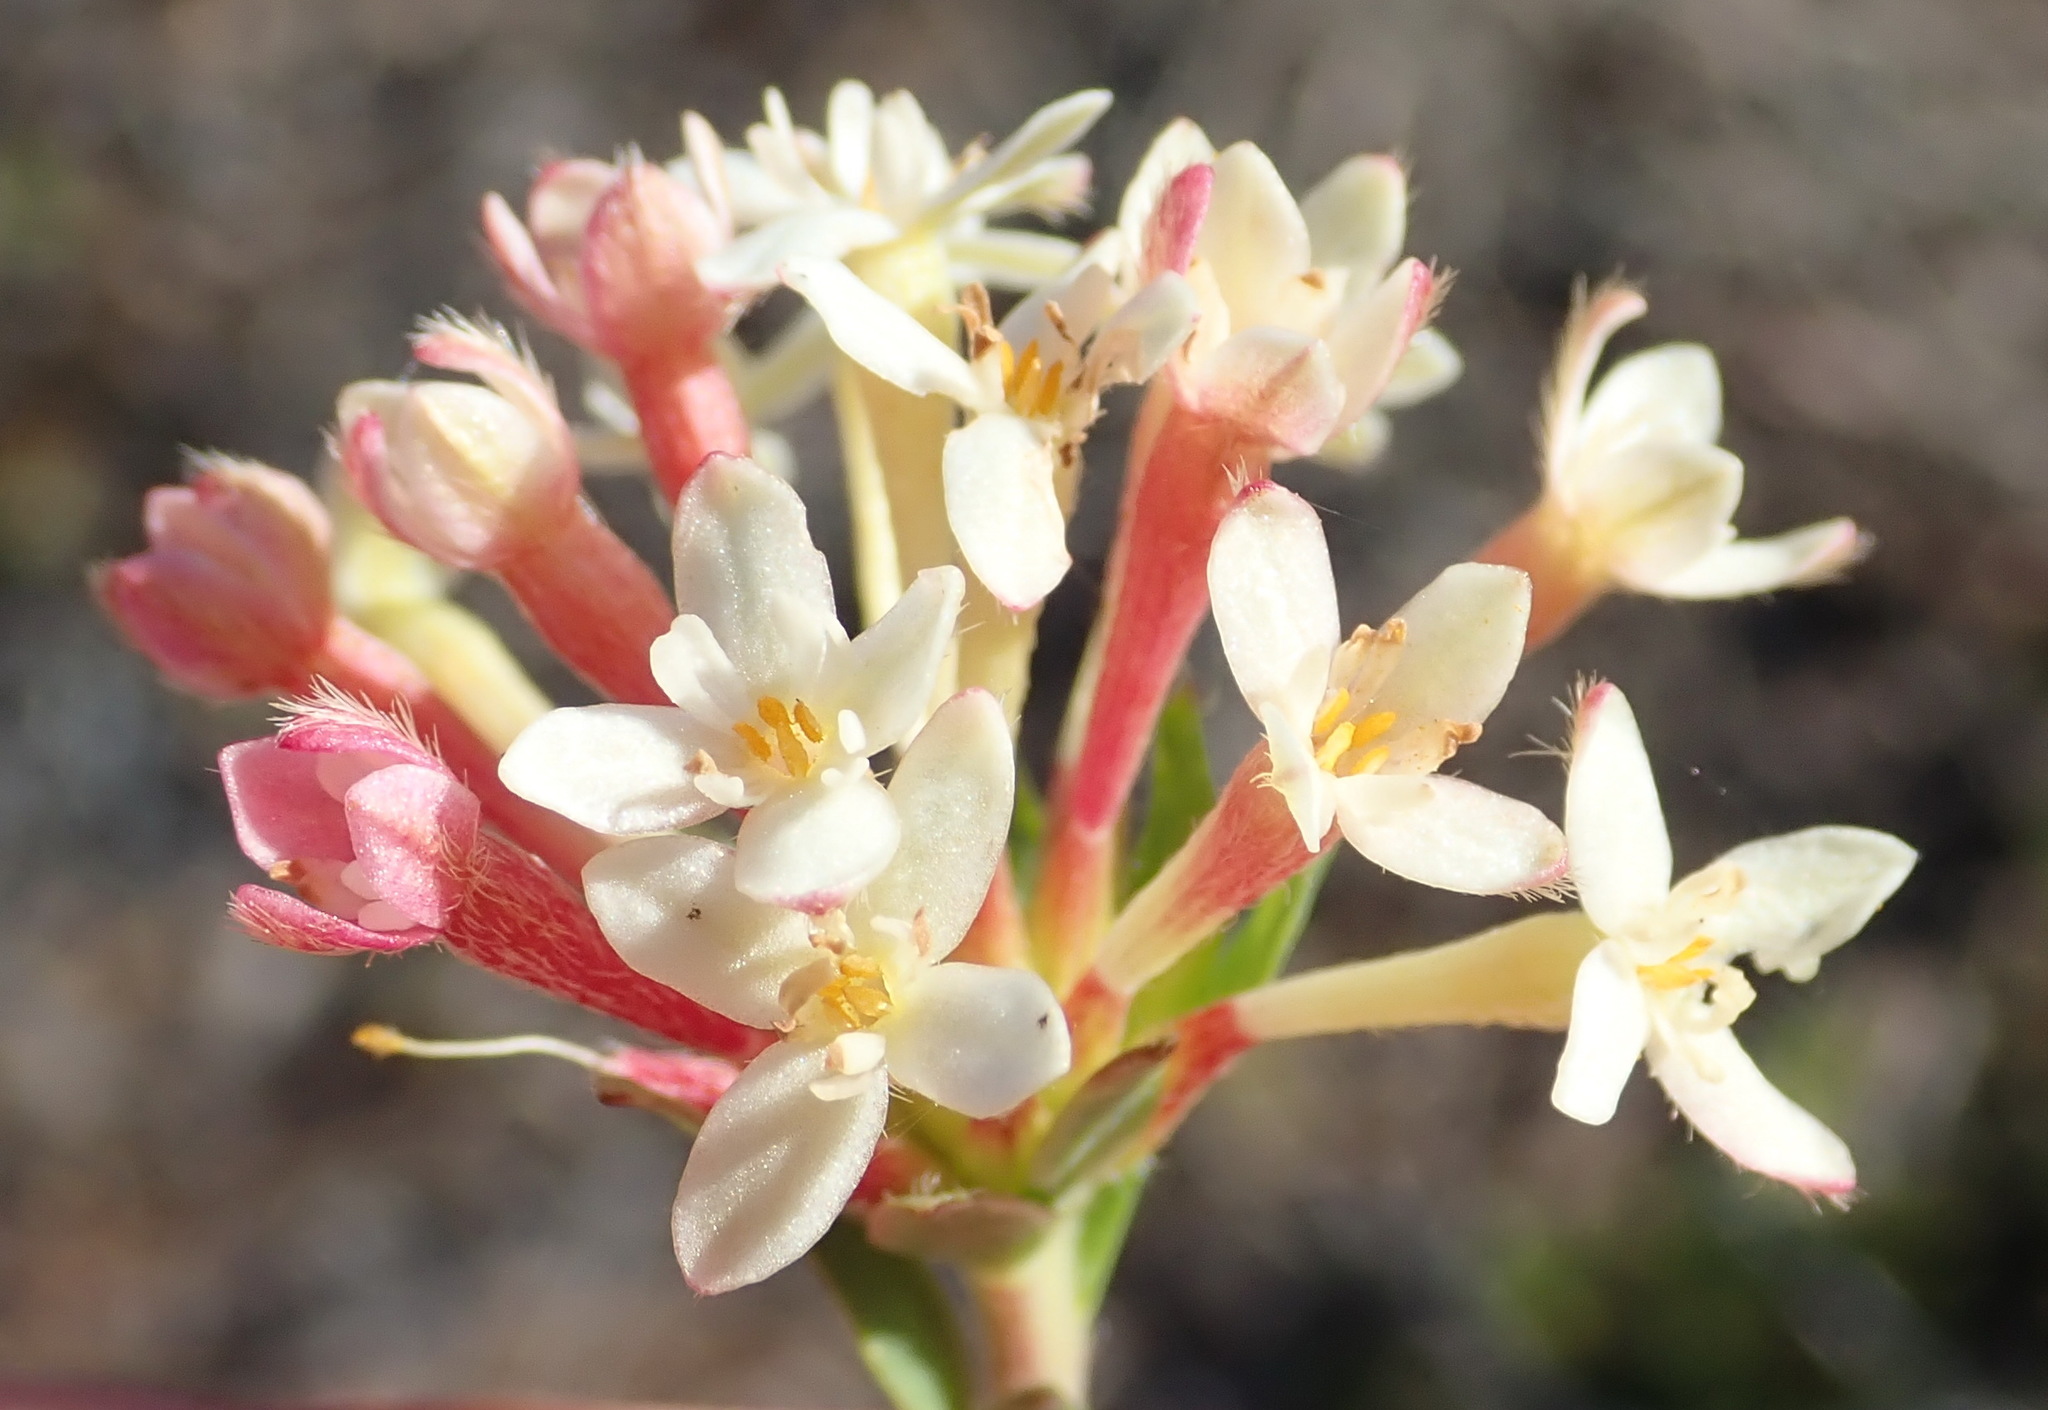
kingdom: Plantae
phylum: Tracheophyta
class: Magnoliopsida
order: Malvales
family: Thymelaeaceae
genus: Gnidia
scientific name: Gnidia squarrosa
